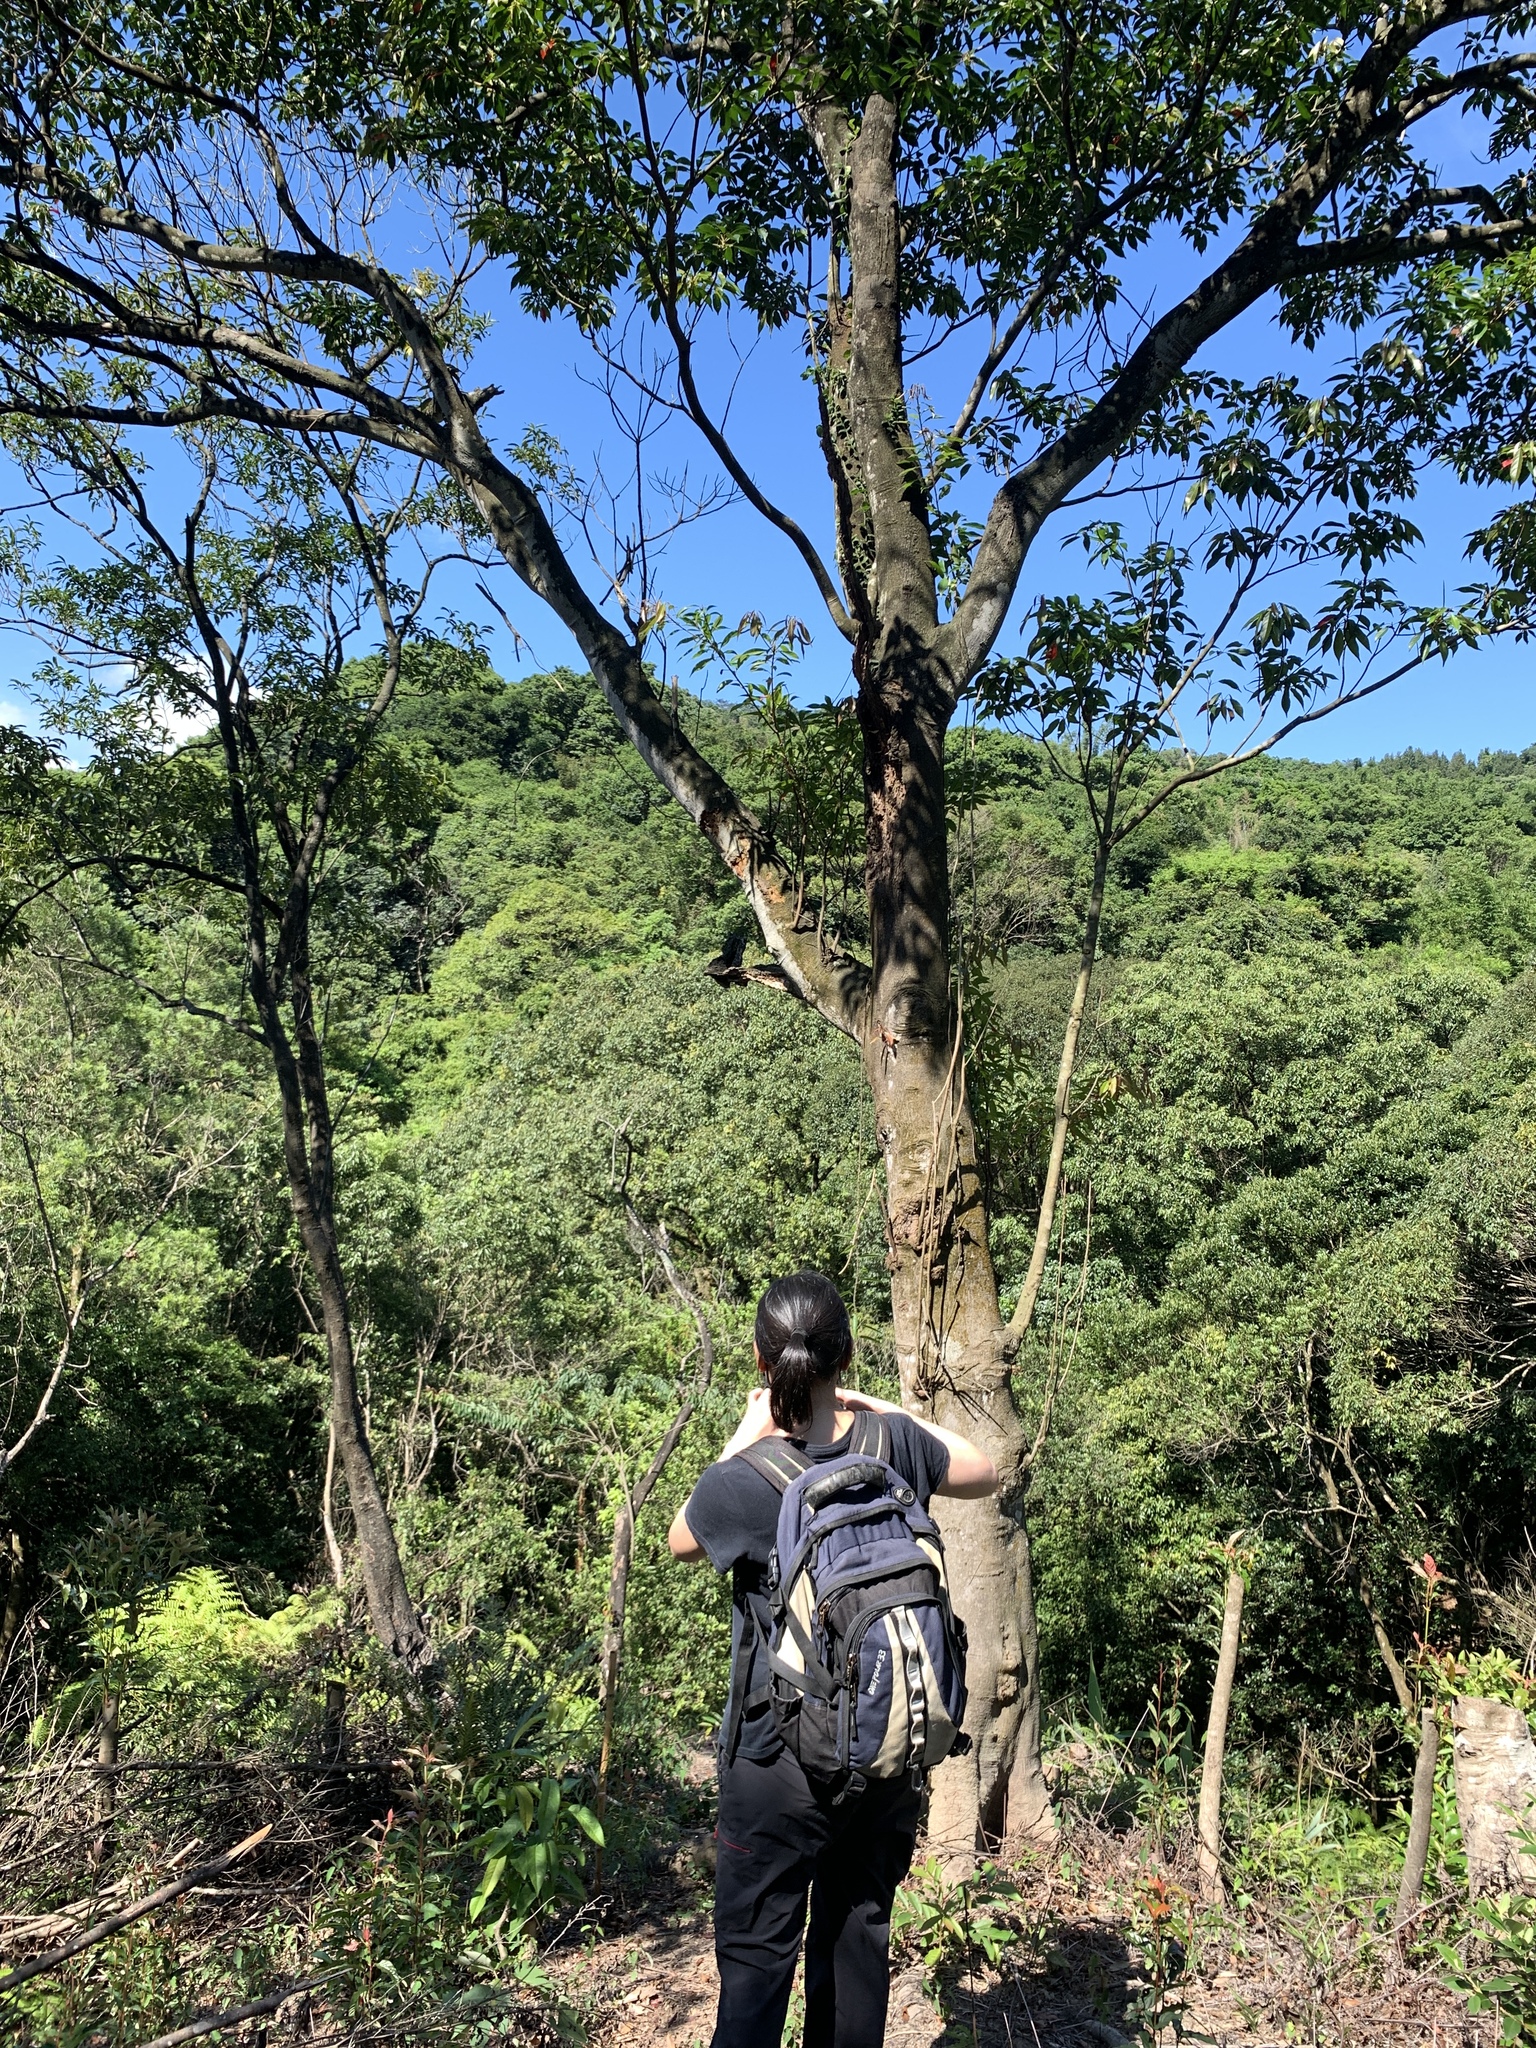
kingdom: Plantae
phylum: Tracheophyta
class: Magnoliopsida
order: Oxalidales
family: Elaeocarpaceae
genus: Elaeocarpus
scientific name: Elaeocarpus japonicus
